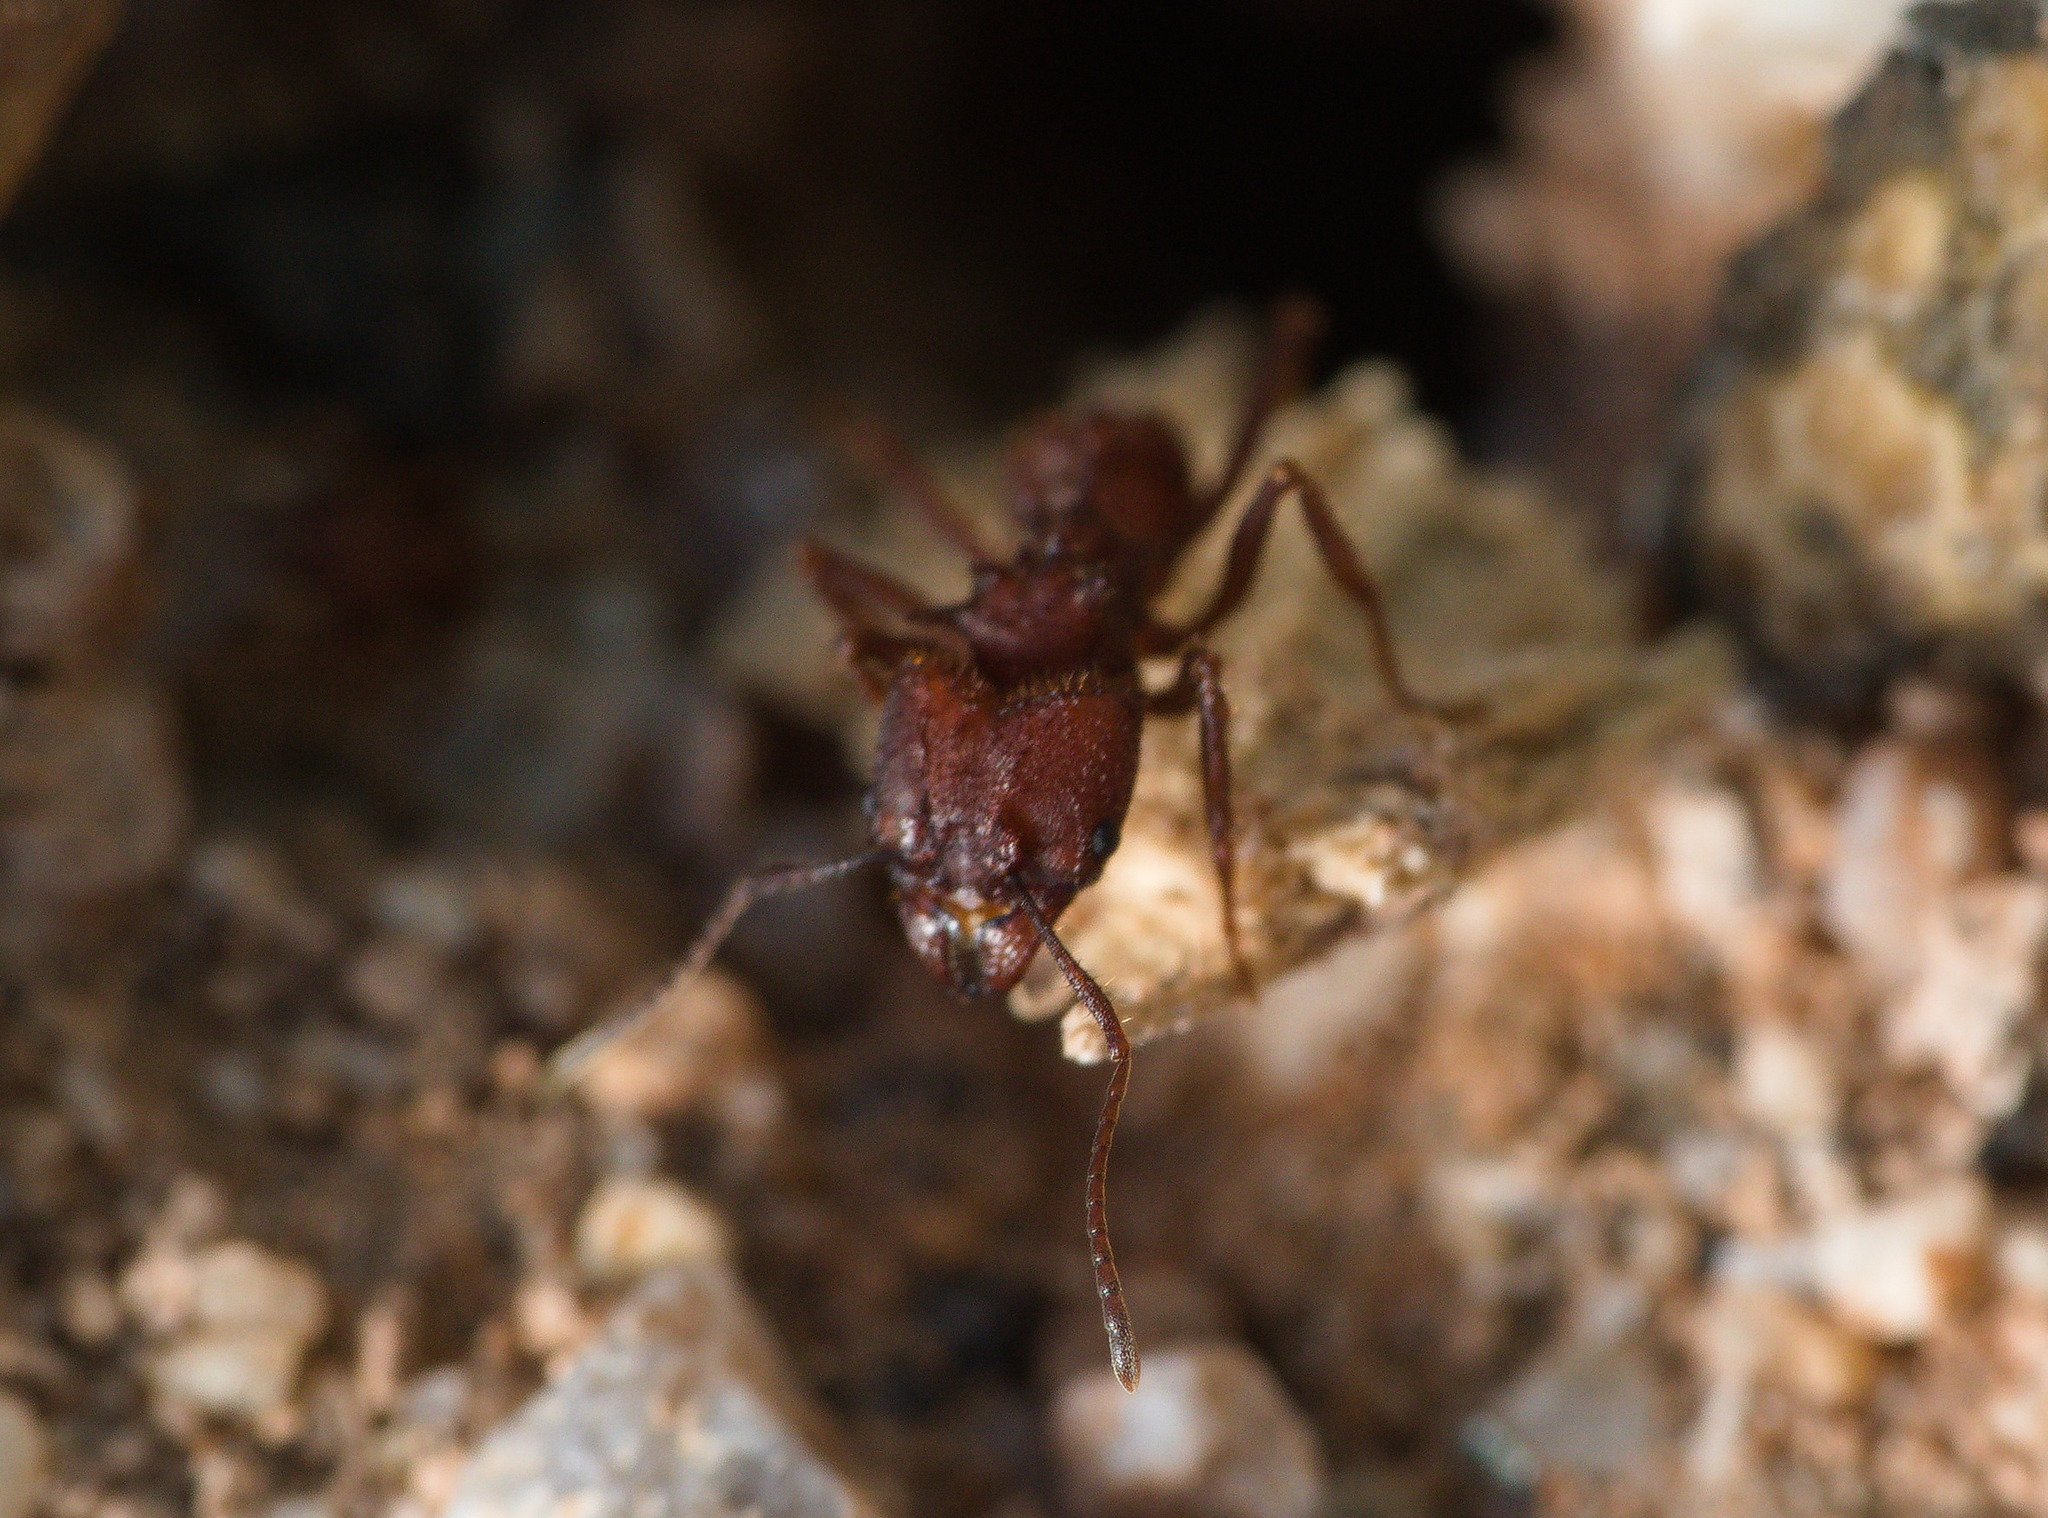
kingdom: Animalia
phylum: Arthropoda
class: Insecta
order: Hymenoptera
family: Formicidae
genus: Acromyrmex
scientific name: Acromyrmex versicolor
